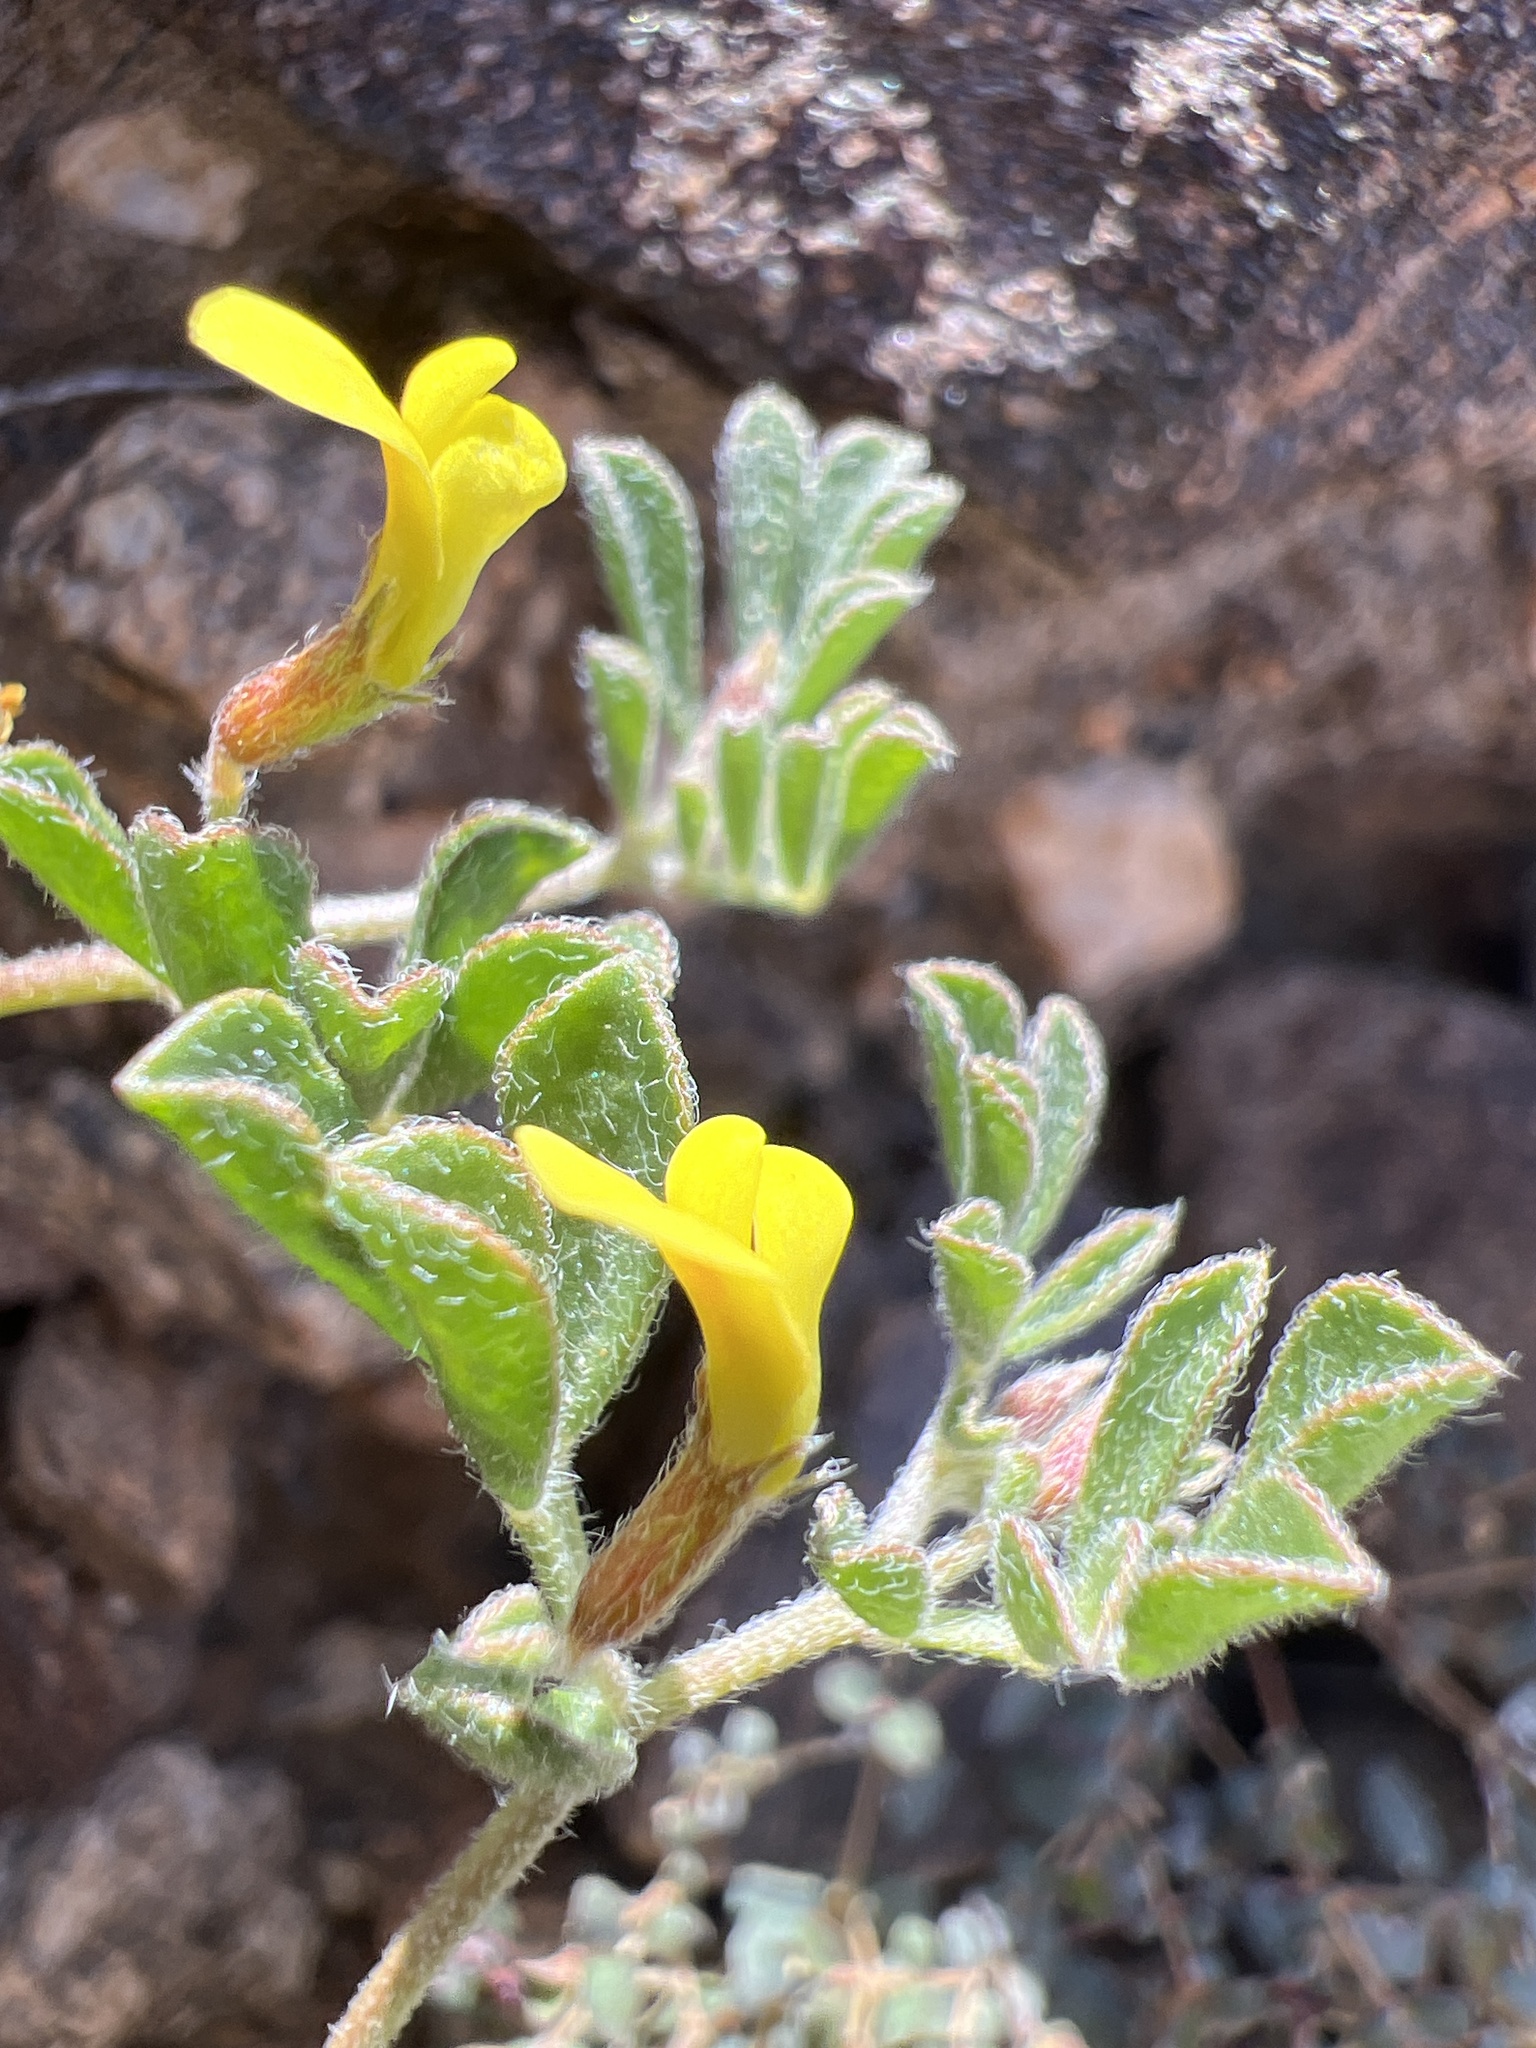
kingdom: Plantae
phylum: Tracheophyta
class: Magnoliopsida
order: Fabales
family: Fabaceae
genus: Acmispon
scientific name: Acmispon strigosus
